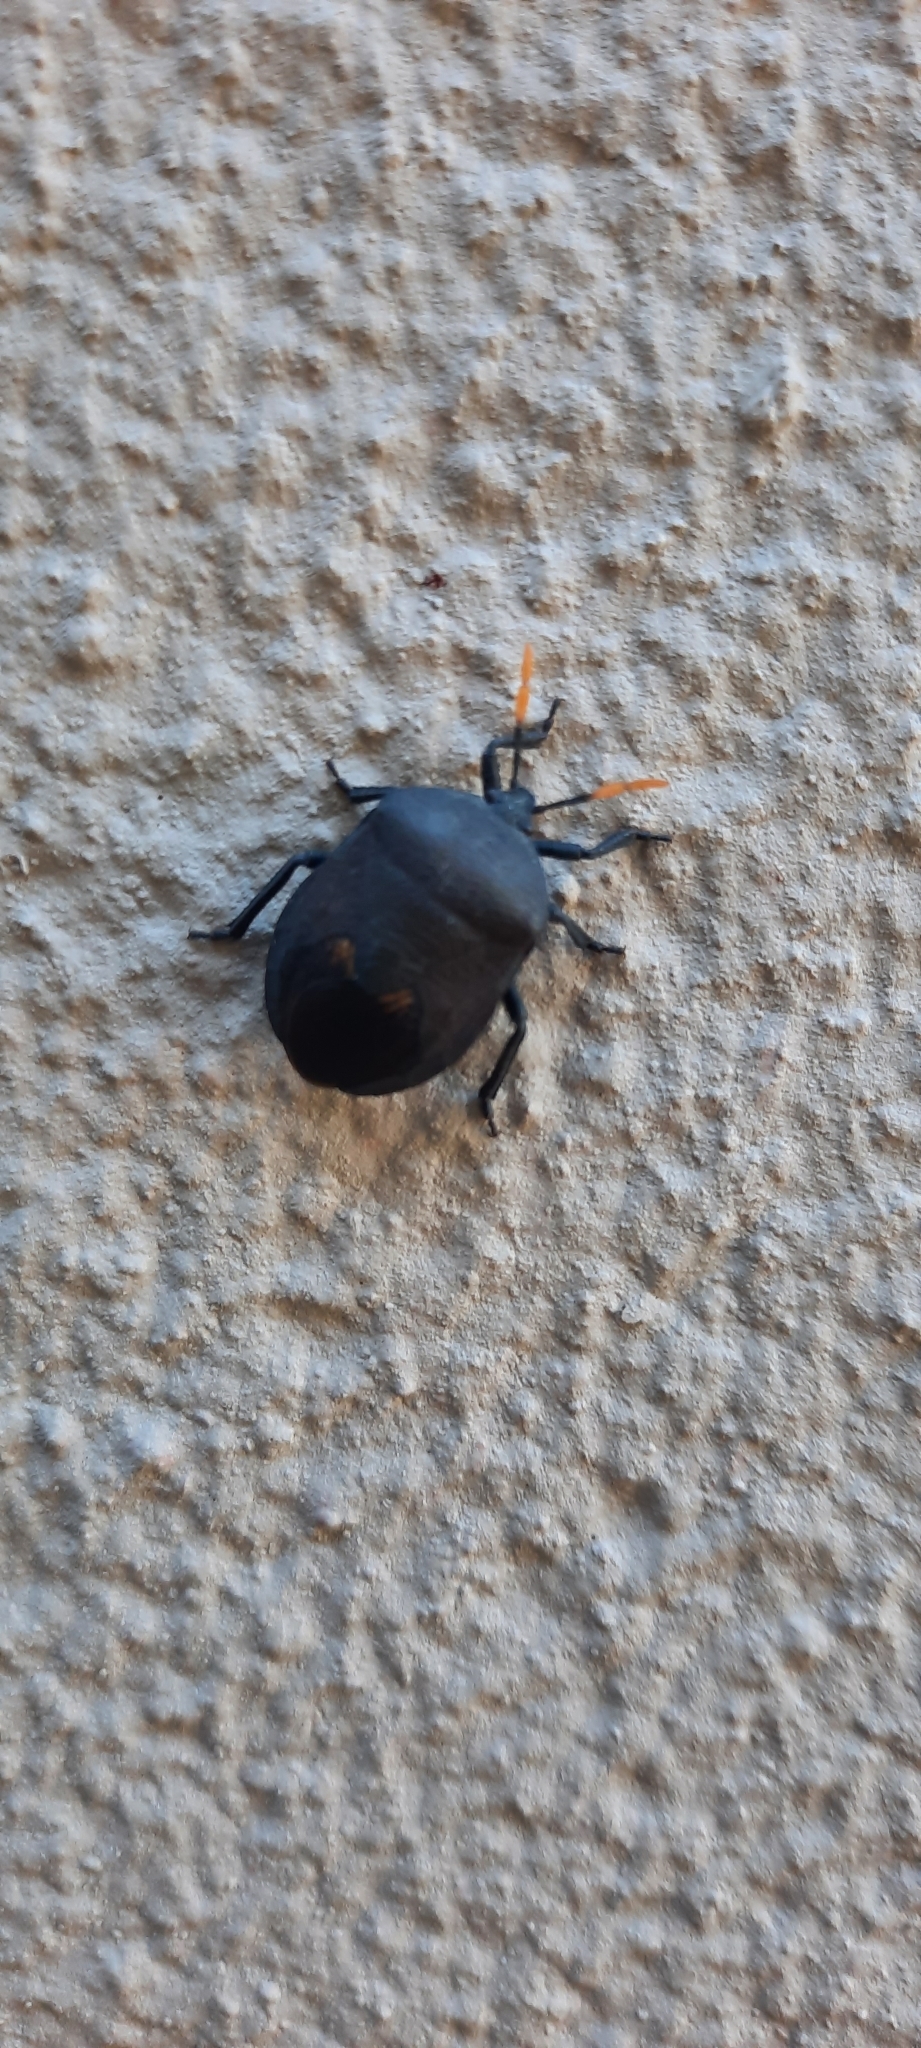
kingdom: Animalia
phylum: Arthropoda
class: Insecta
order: Hemiptera
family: Dinidoridae
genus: Coridius
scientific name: Coridius nubilus
